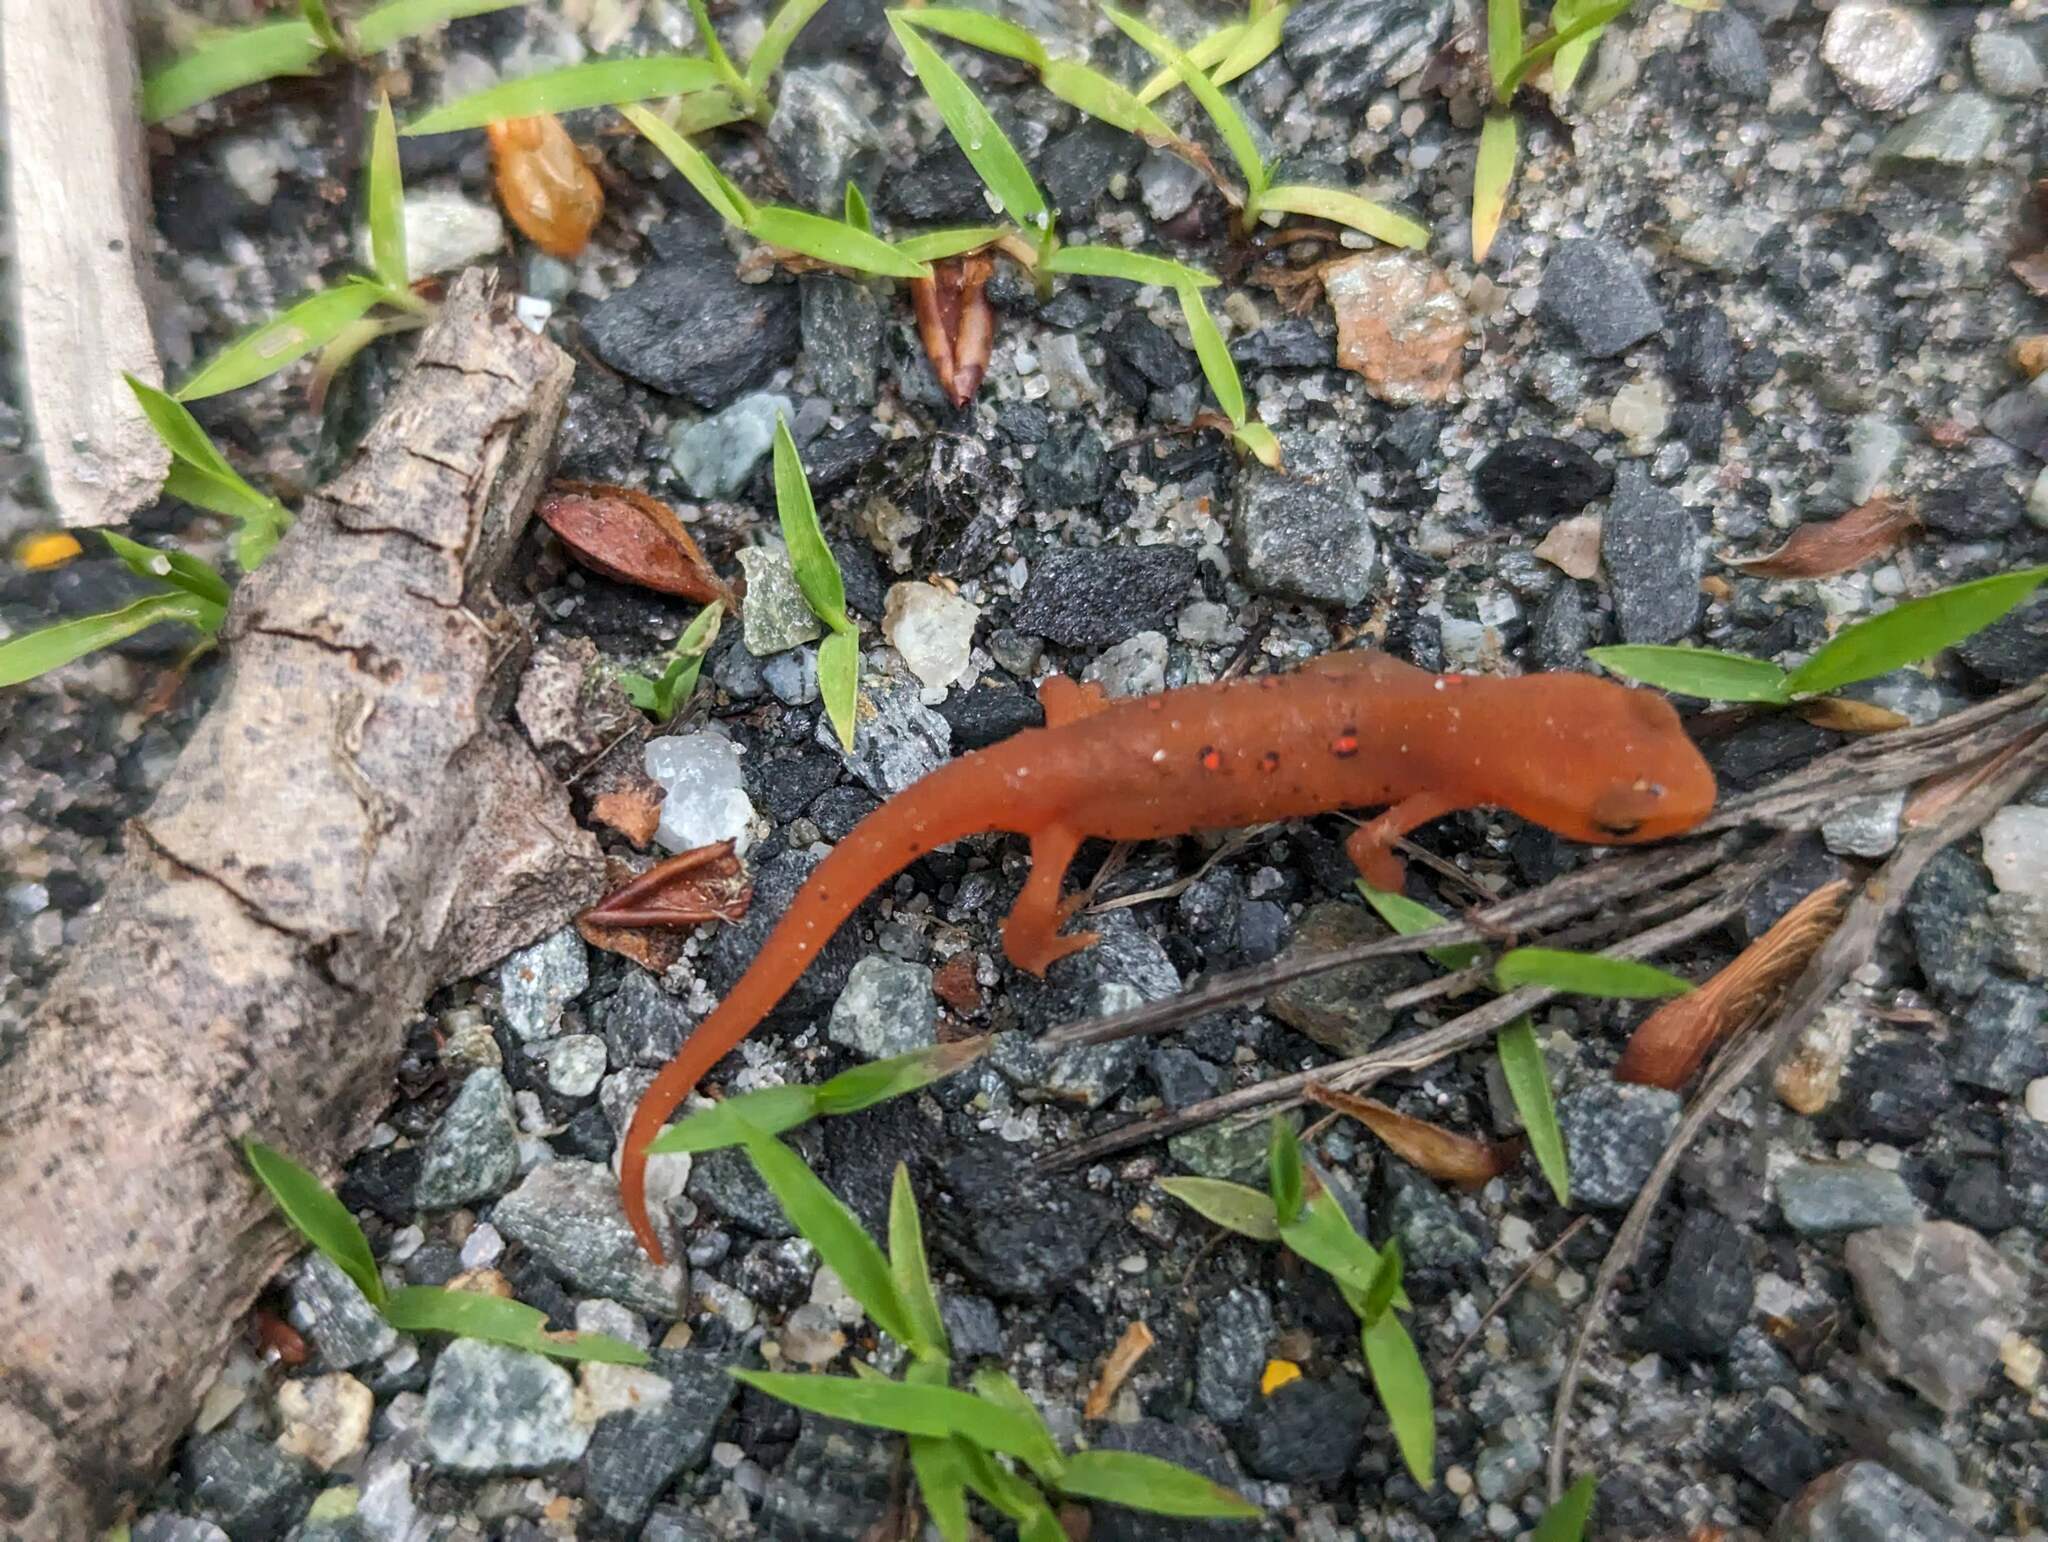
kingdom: Animalia
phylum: Chordata
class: Amphibia
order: Caudata
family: Salamandridae
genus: Notophthalmus
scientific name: Notophthalmus viridescens
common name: Eastern newt
